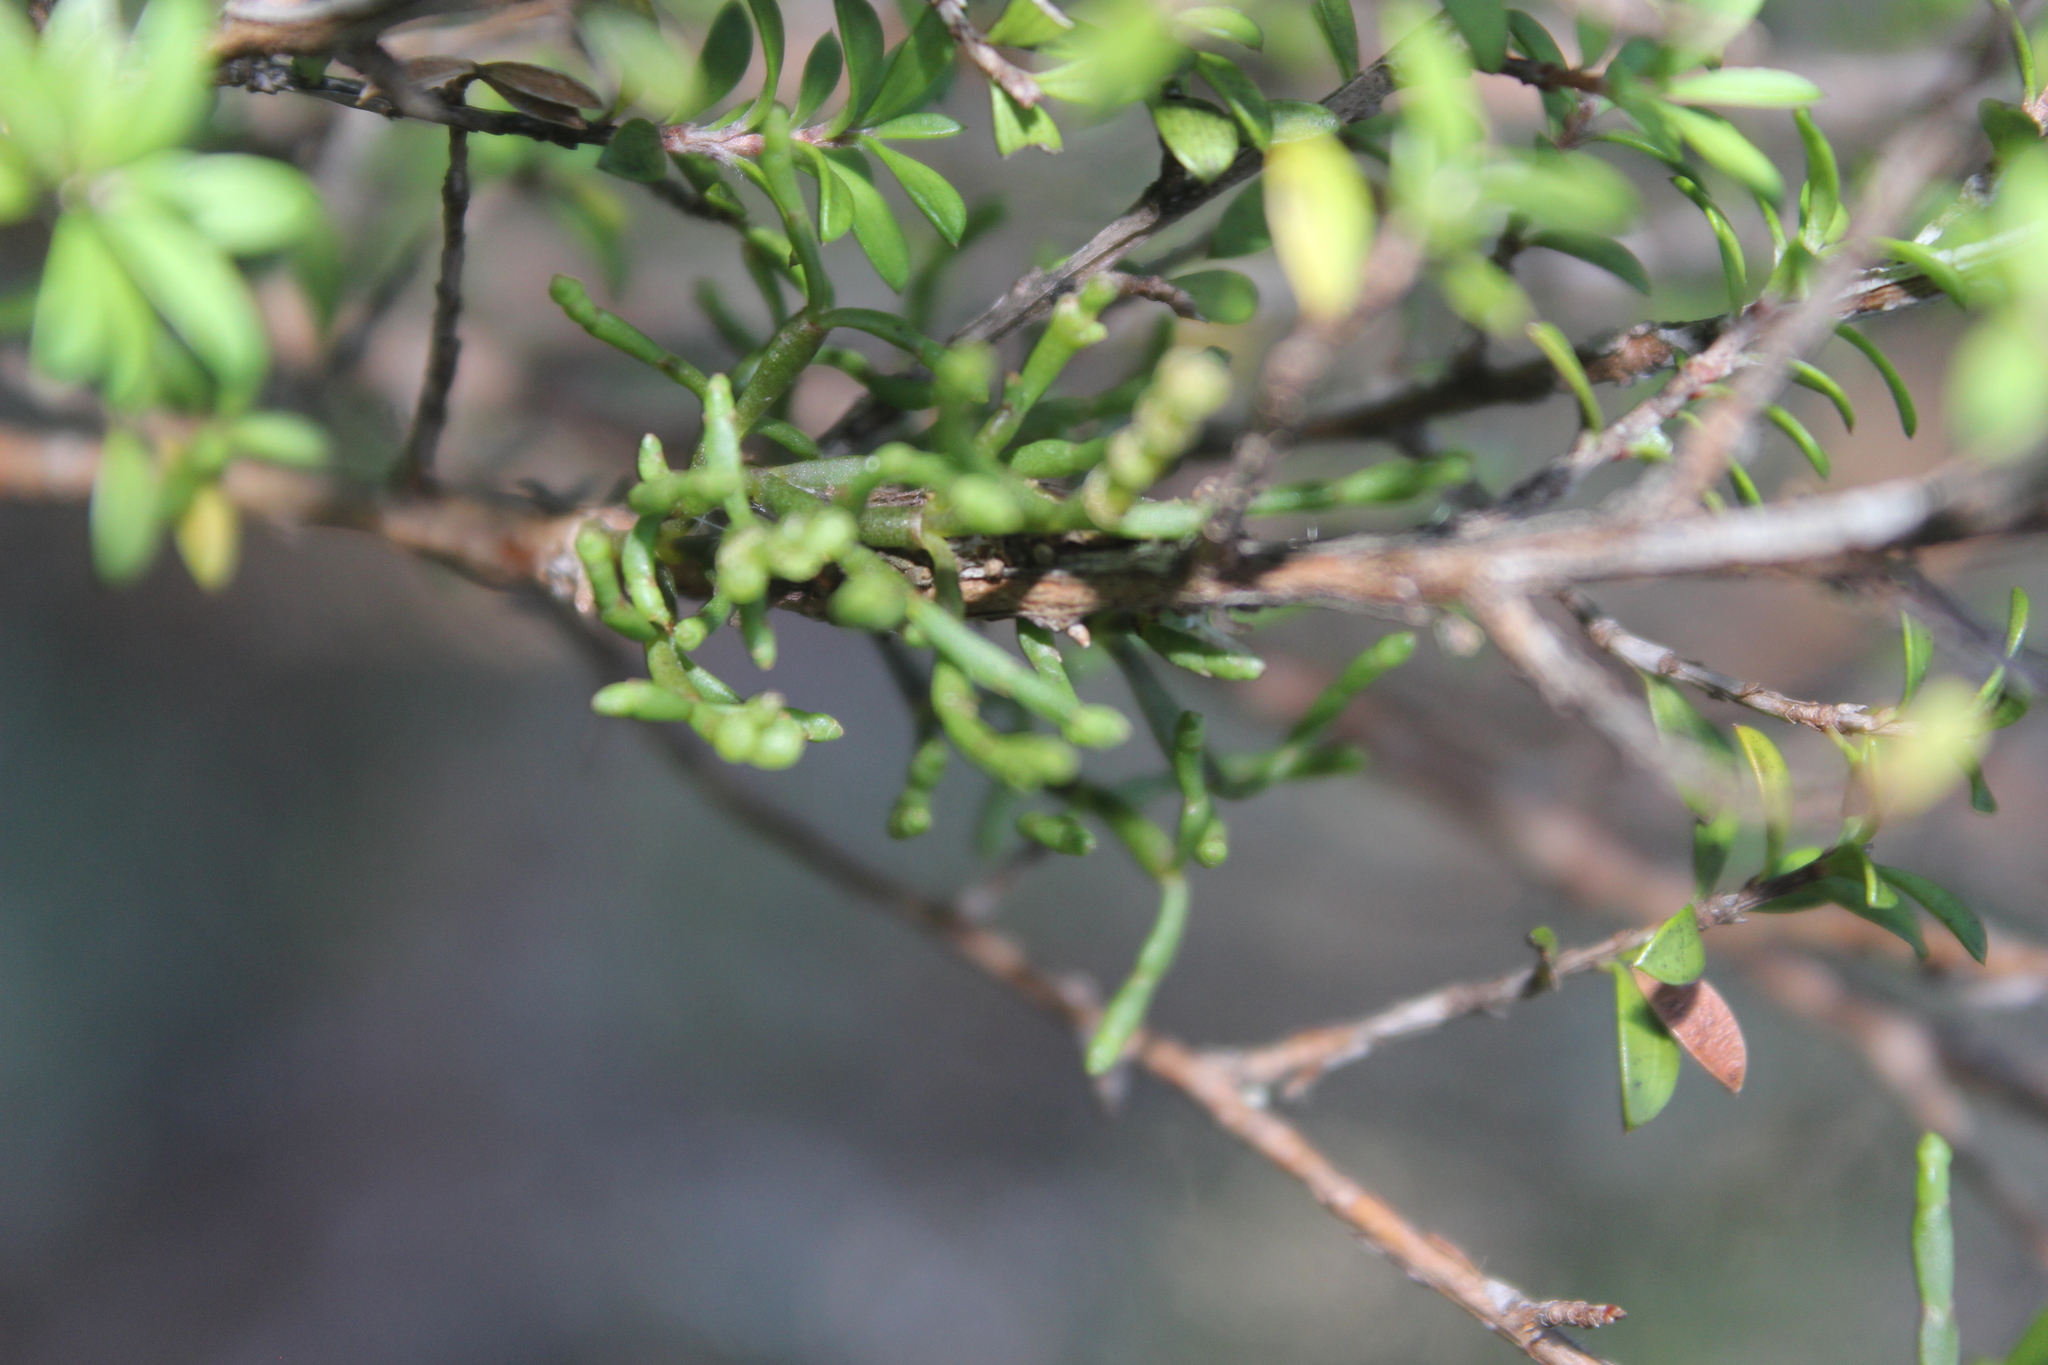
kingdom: Plantae
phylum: Tracheophyta
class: Magnoliopsida
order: Santalales
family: Viscaceae
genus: Korthalsella
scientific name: Korthalsella salicornioides
